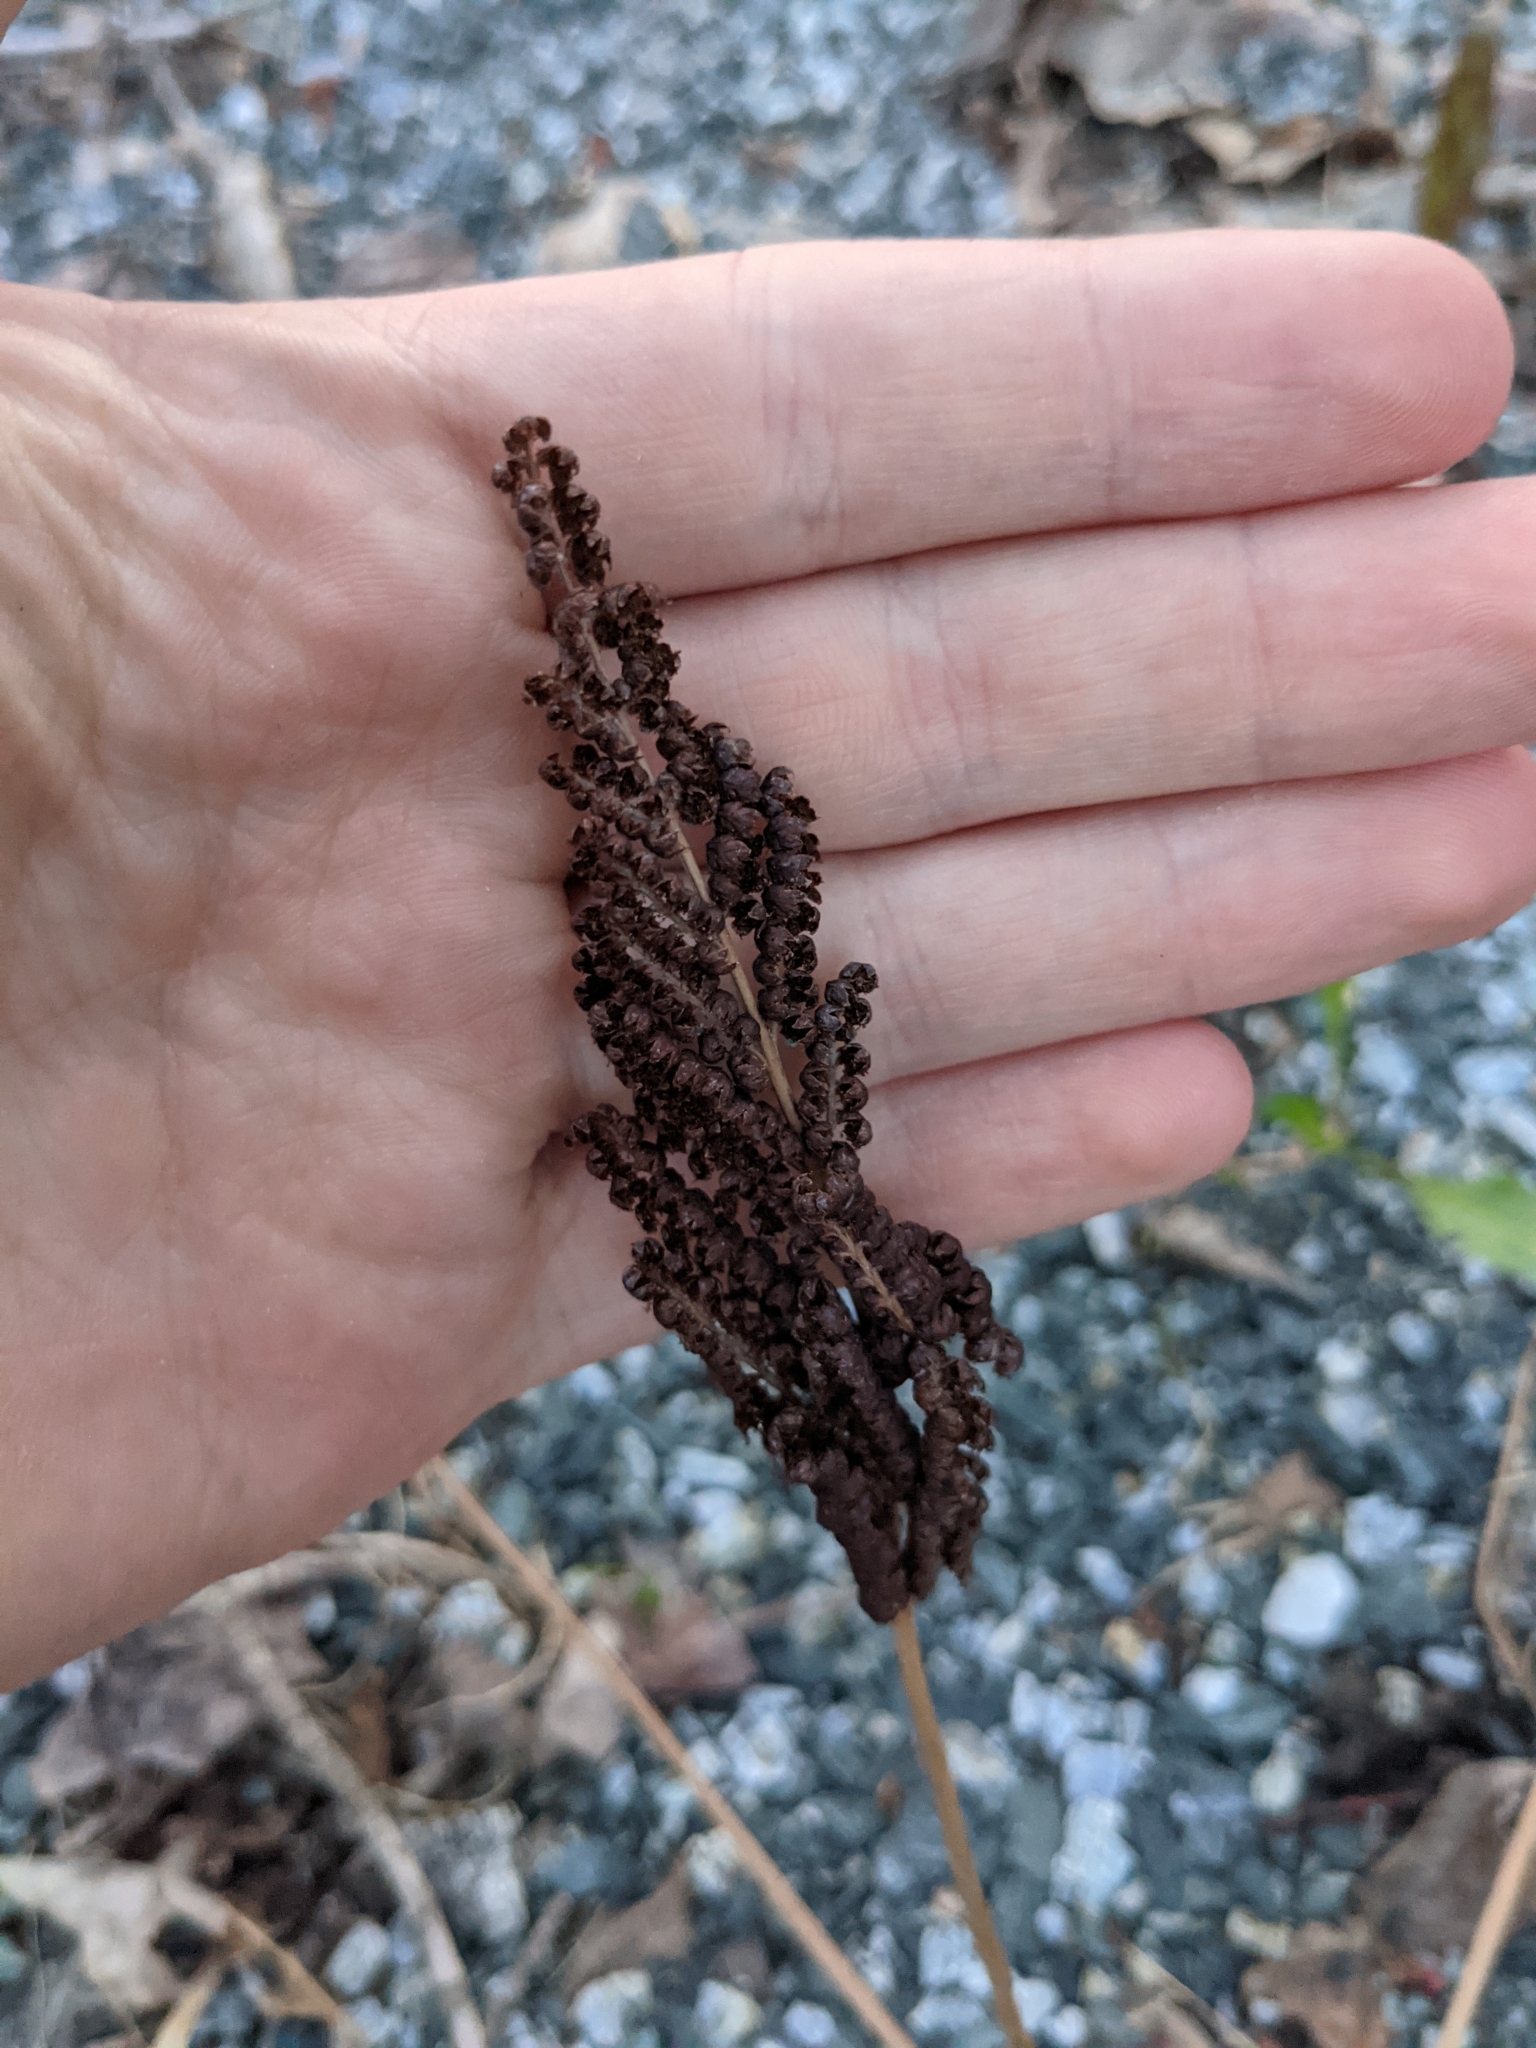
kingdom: Plantae
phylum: Tracheophyta
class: Polypodiopsida
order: Polypodiales
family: Onocleaceae
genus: Onoclea
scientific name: Onoclea sensibilis
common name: Sensitive fern
